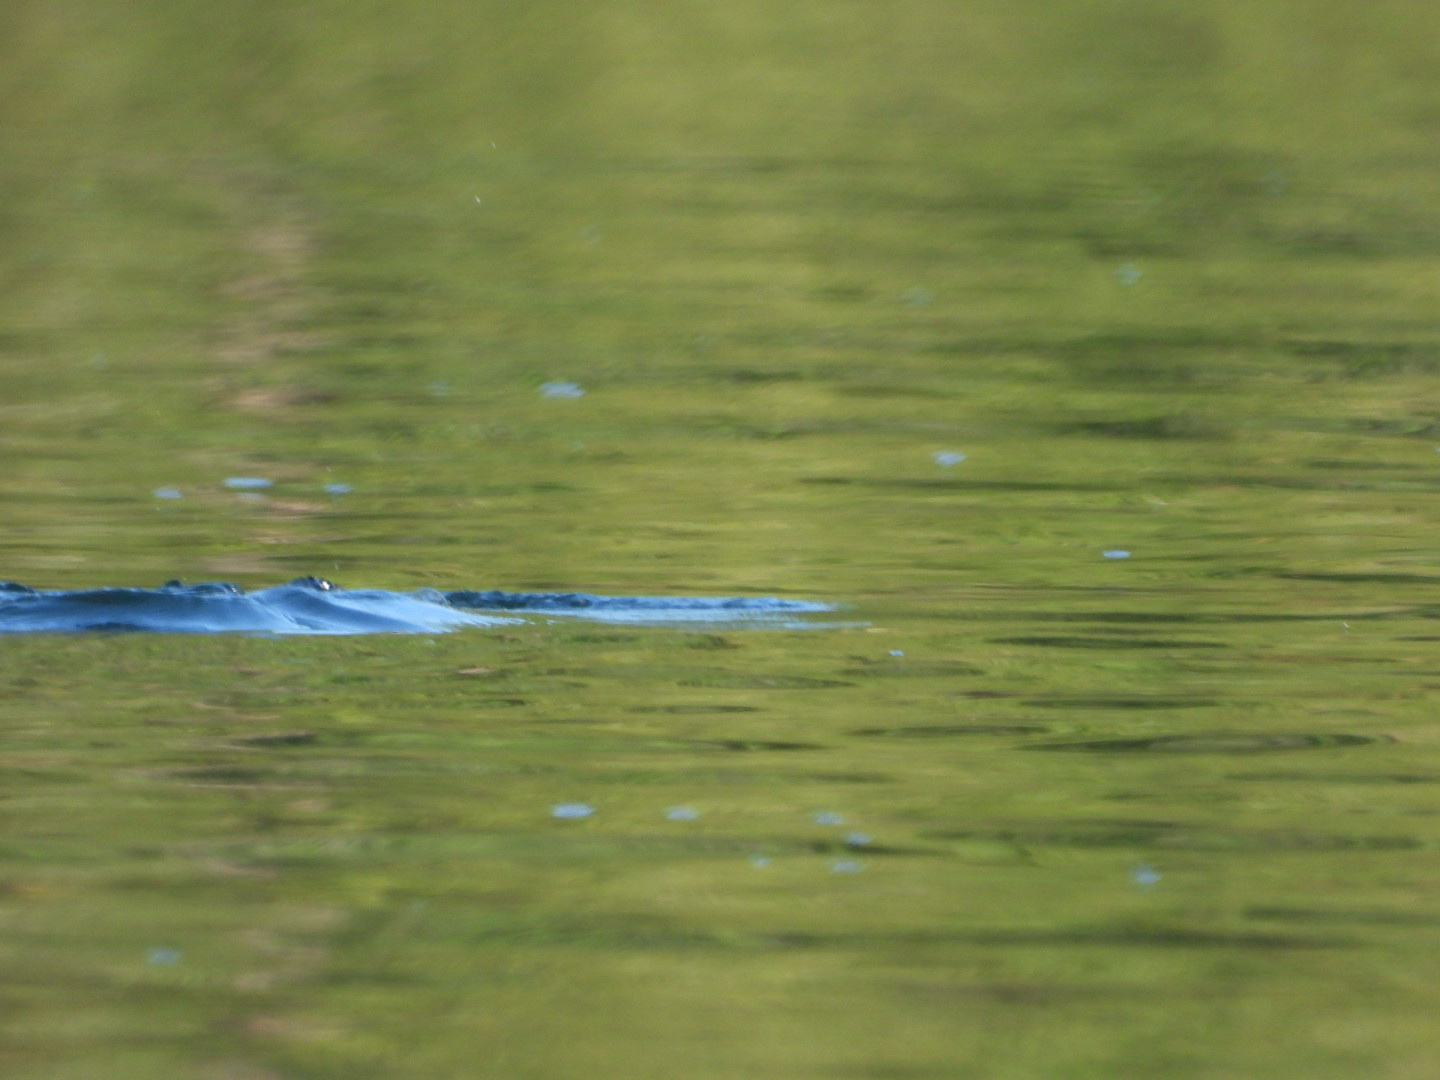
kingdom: Animalia
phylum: Chordata
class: Aves
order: Gaviiformes
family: Gaviidae
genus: Gavia
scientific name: Gavia immer
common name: Common loon
